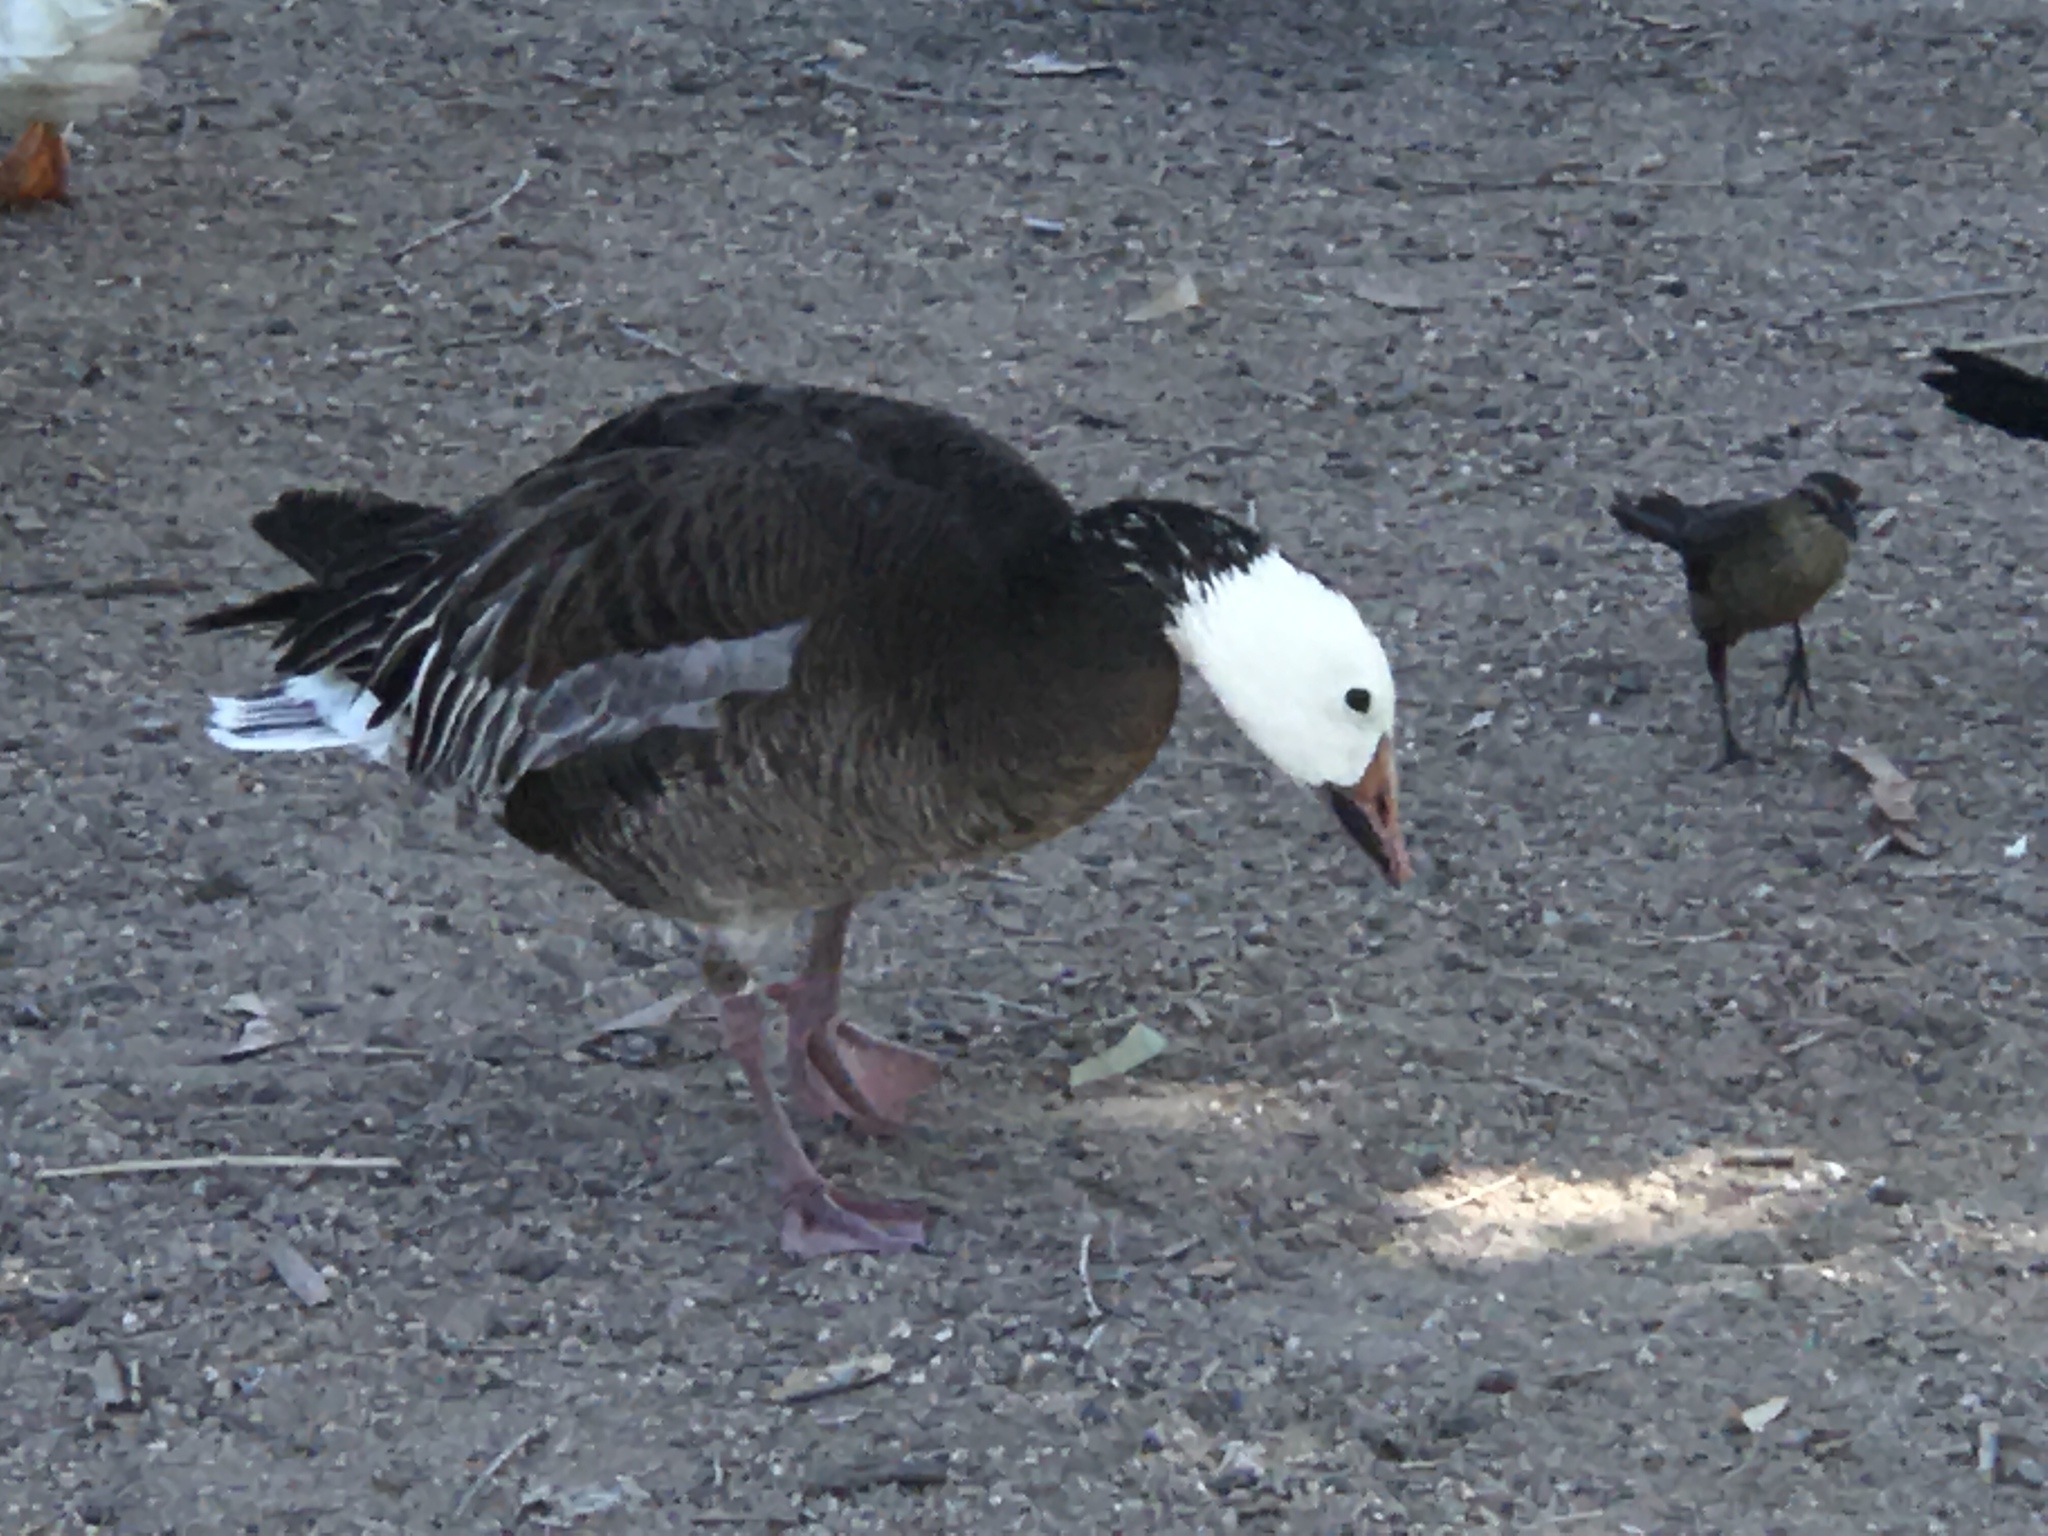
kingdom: Animalia
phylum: Chordata
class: Aves
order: Anseriformes
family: Anatidae
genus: Anser
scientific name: Anser caerulescens
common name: Snow goose
